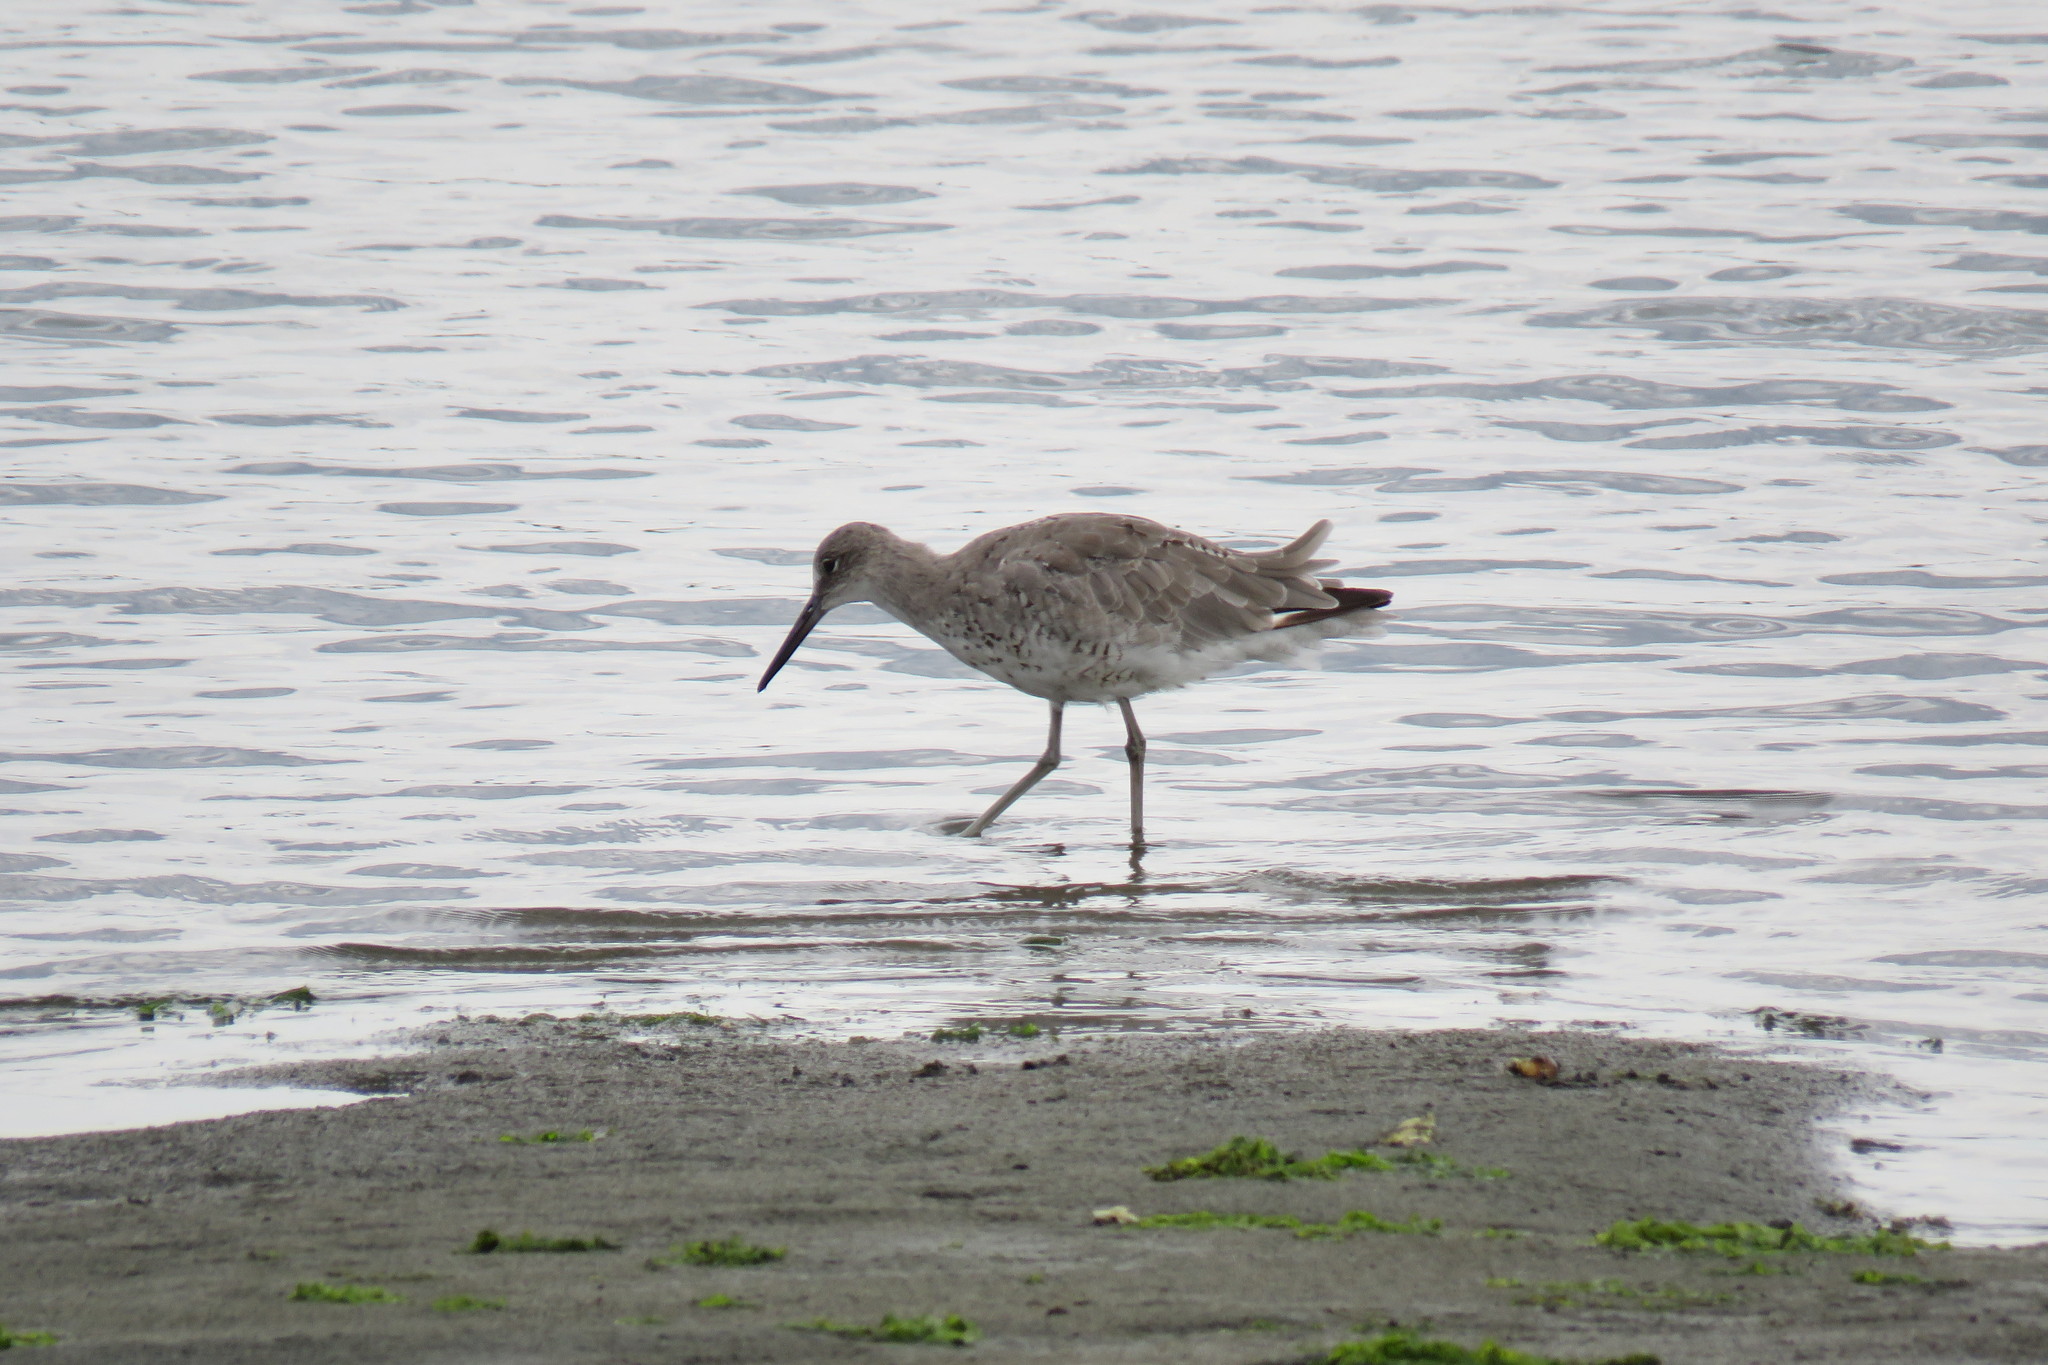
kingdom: Animalia
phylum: Chordata
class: Aves
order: Charadriiformes
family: Scolopacidae
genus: Tringa
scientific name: Tringa semipalmata
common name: Willet
